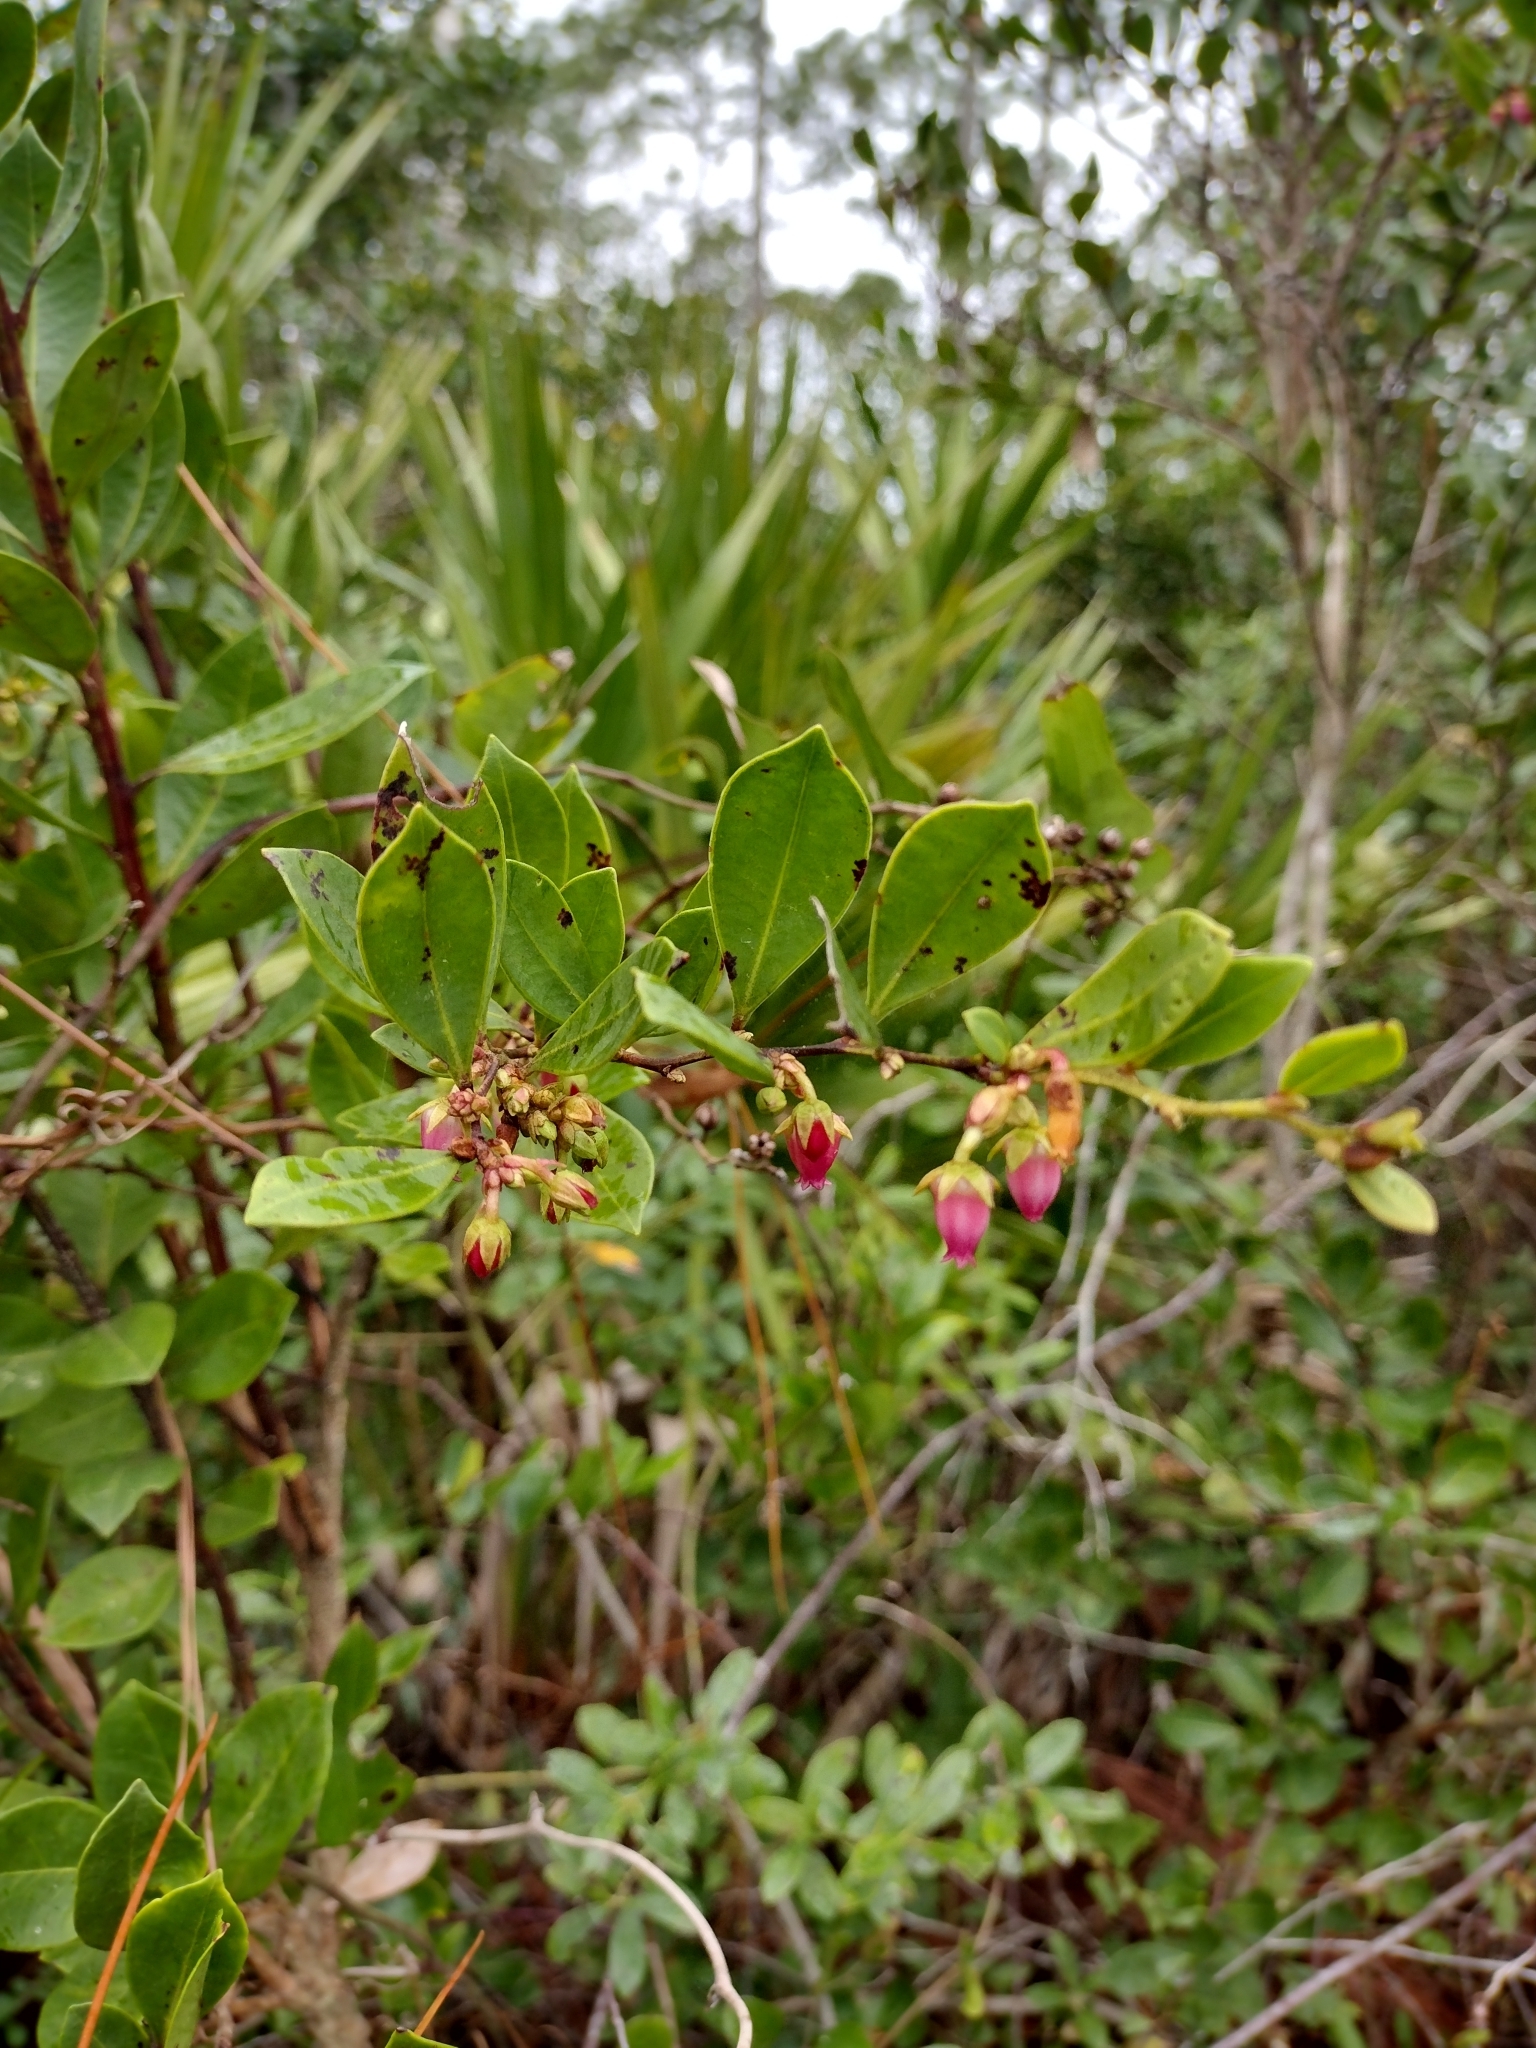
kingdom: Plantae
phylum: Tracheophyta
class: Magnoliopsida
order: Ericales
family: Ericaceae
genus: Lyonia
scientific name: Lyonia lucida
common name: Fetterbush
